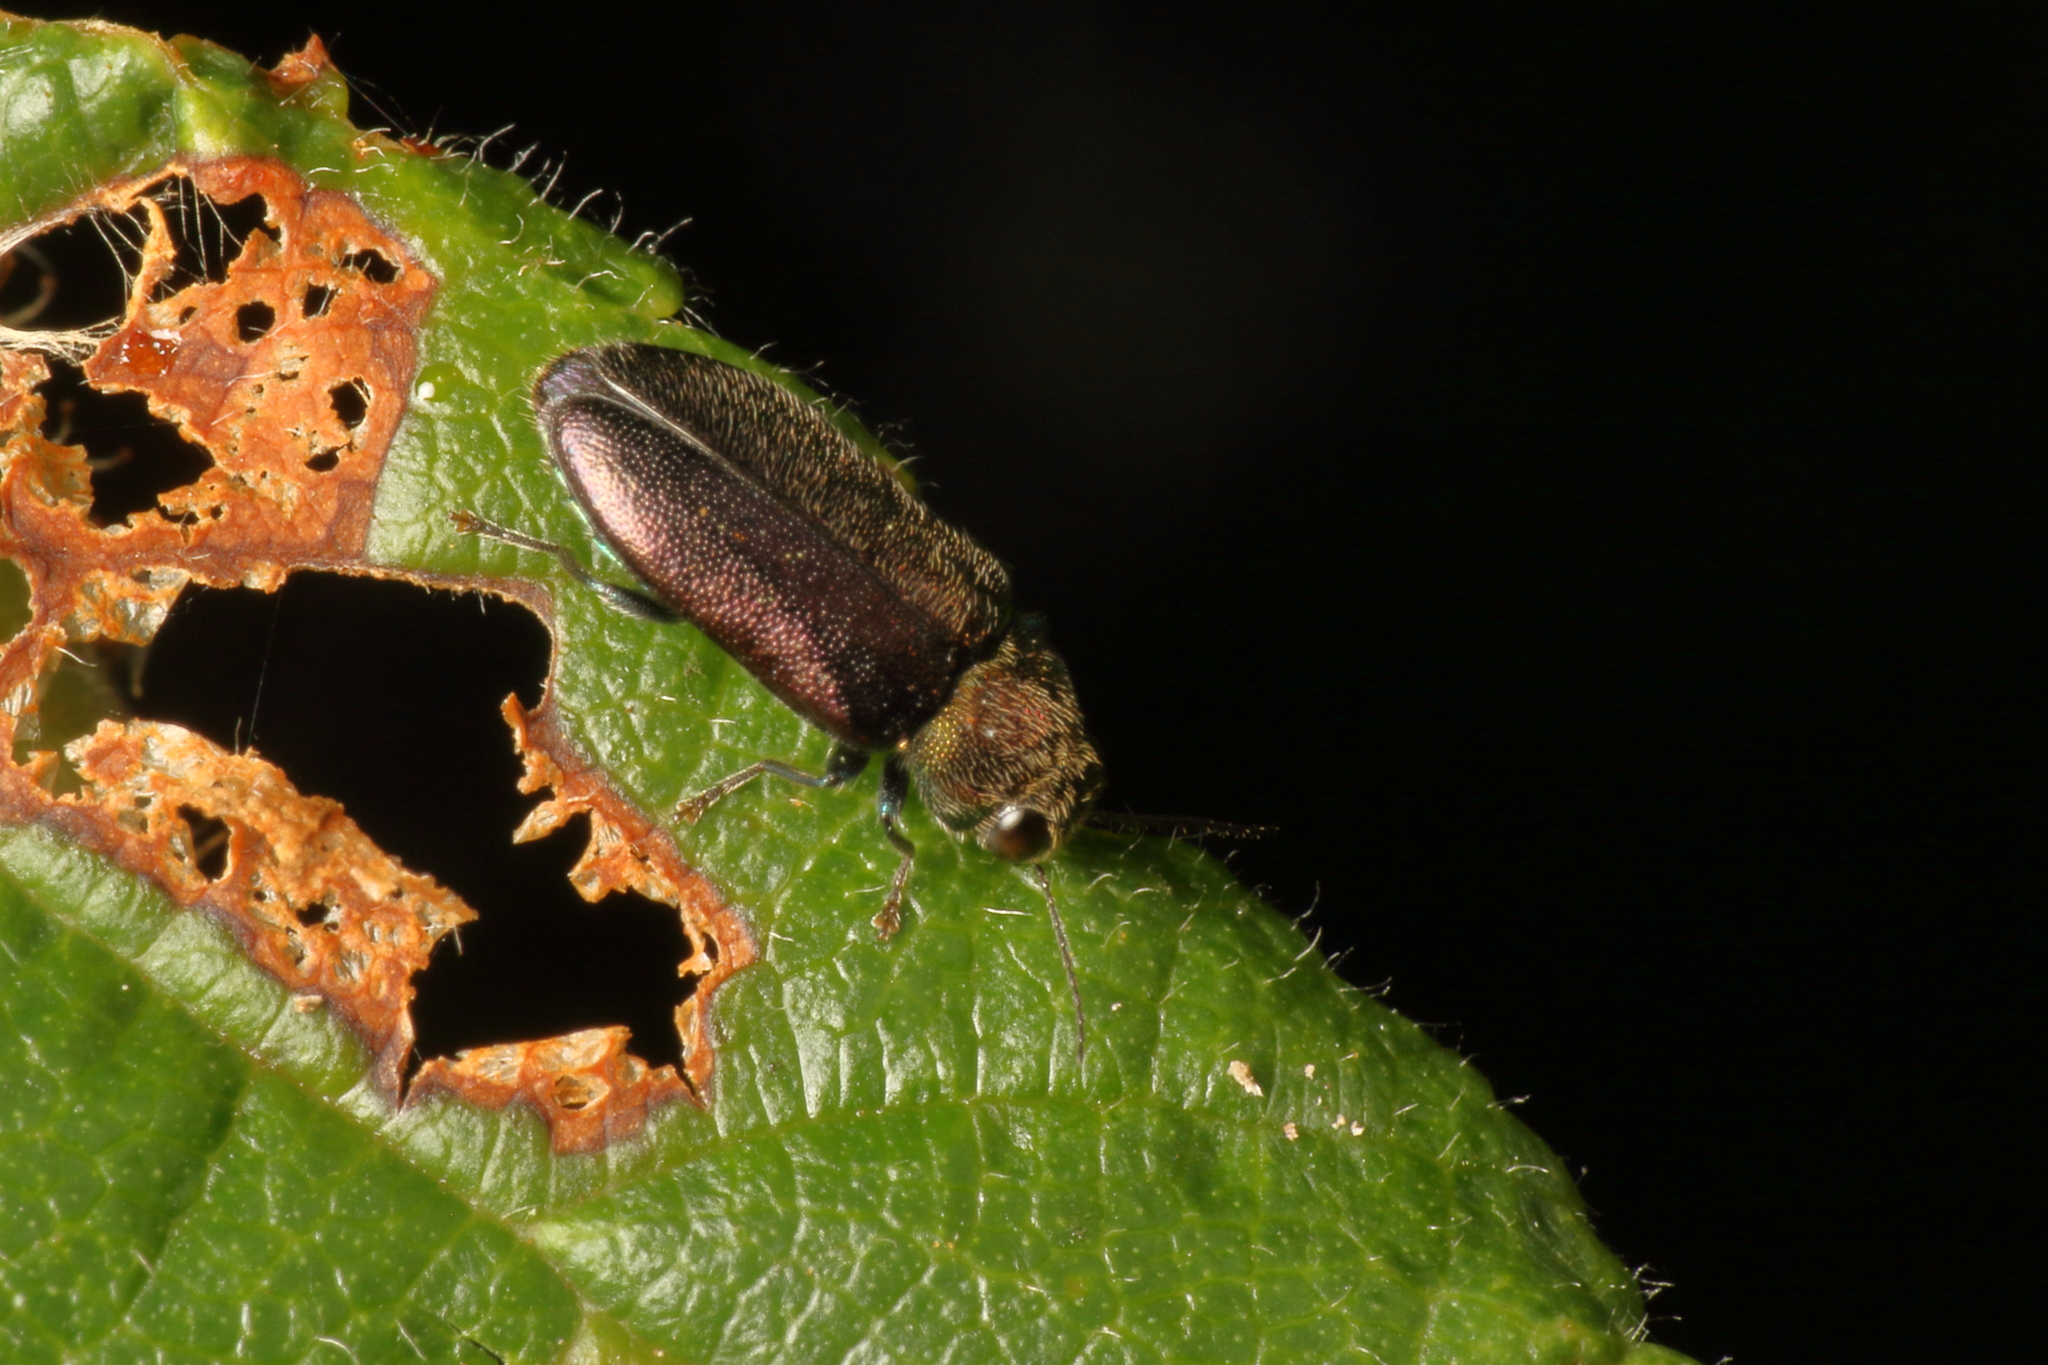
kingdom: Animalia
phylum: Arthropoda
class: Insecta
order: Coleoptera
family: Buprestidae
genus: Maoraxia
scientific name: Maoraxia eremita
